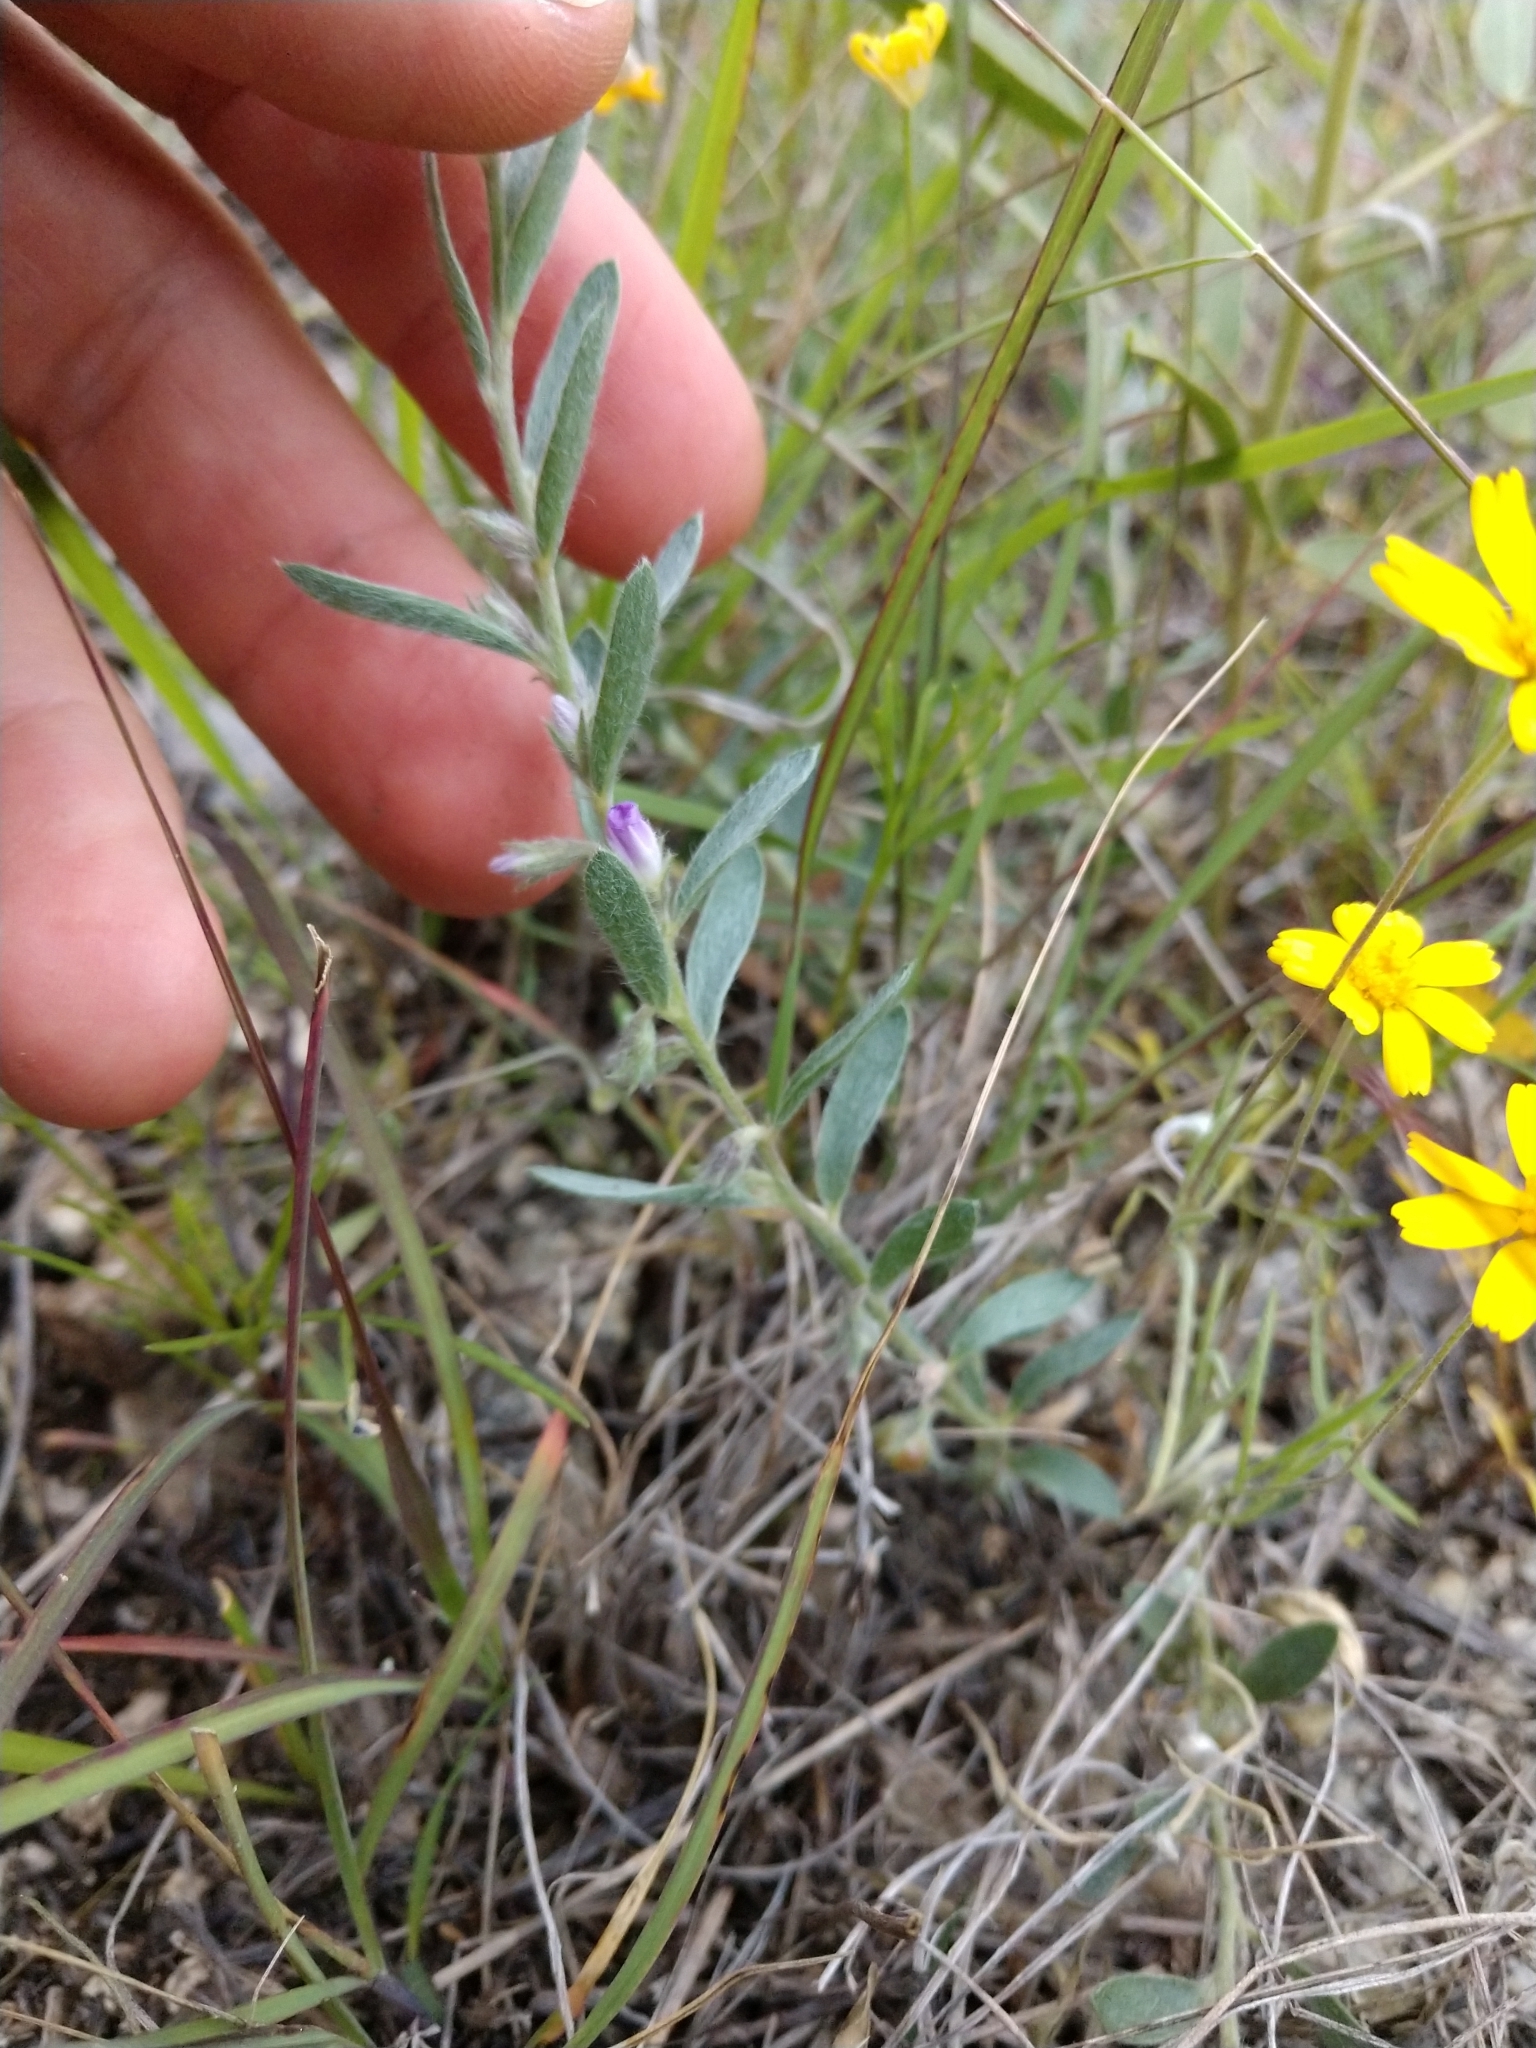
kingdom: Plantae
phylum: Tracheophyta
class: Magnoliopsida
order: Solanales
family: Convolvulaceae
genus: Evolvulus
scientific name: Evolvulus nuttallianus
